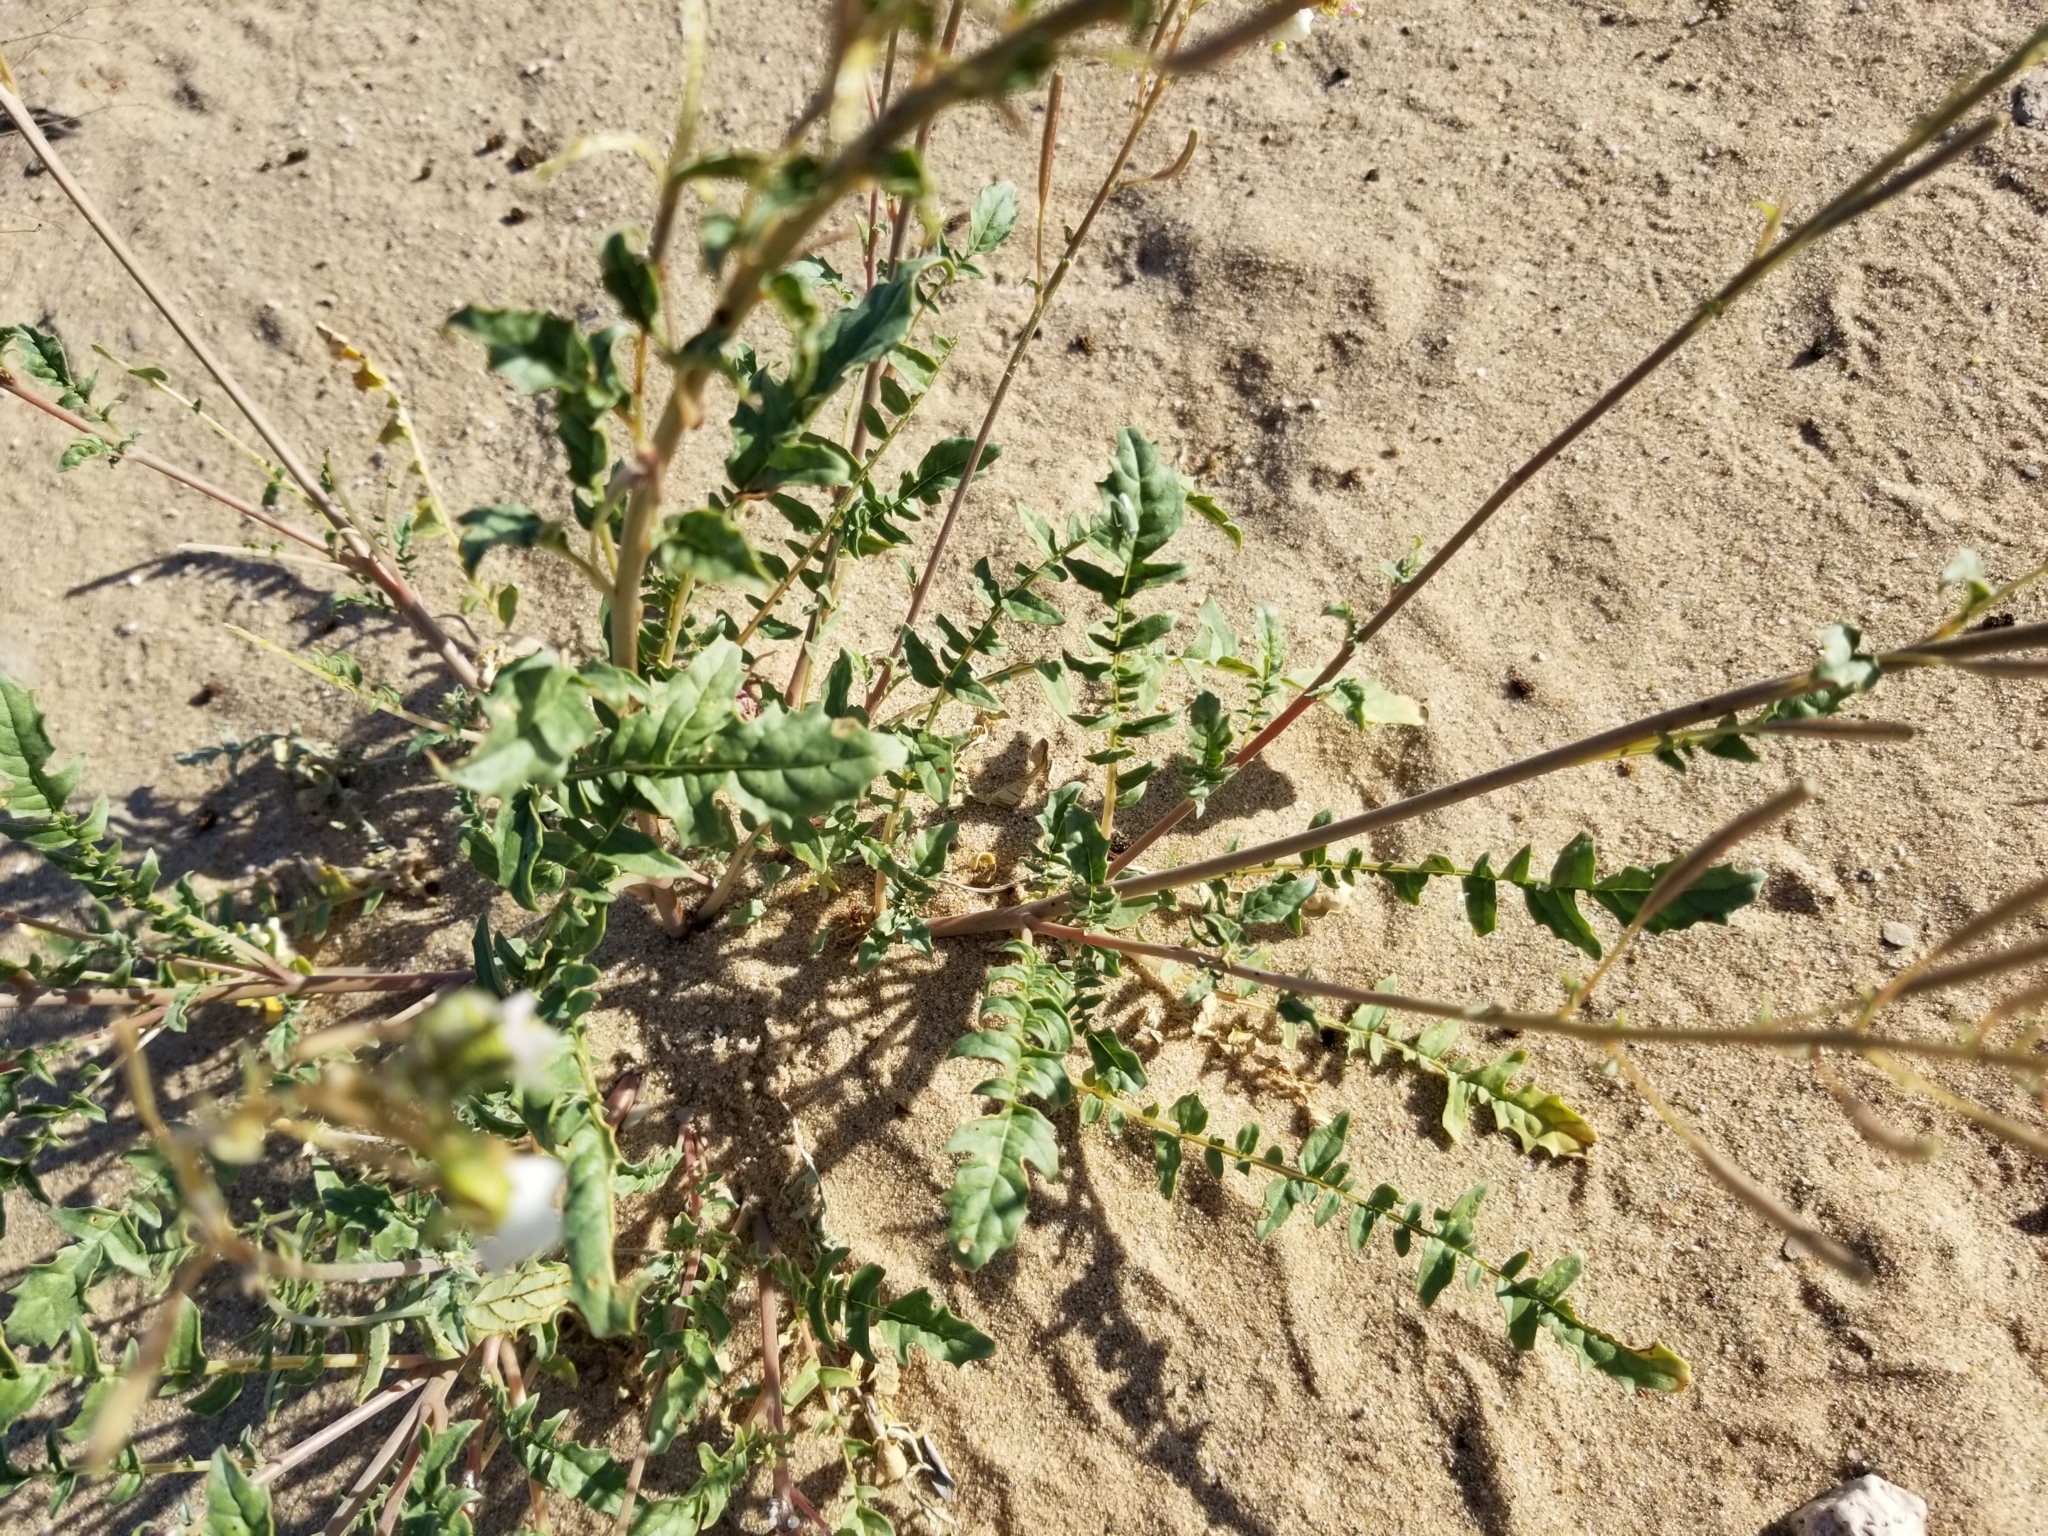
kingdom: Plantae
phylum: Tracheophyta
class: Magnoliopsida
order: Myrtales
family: Onagraceae
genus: Chylismia
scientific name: Chylismia claviformis
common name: Browneyes
